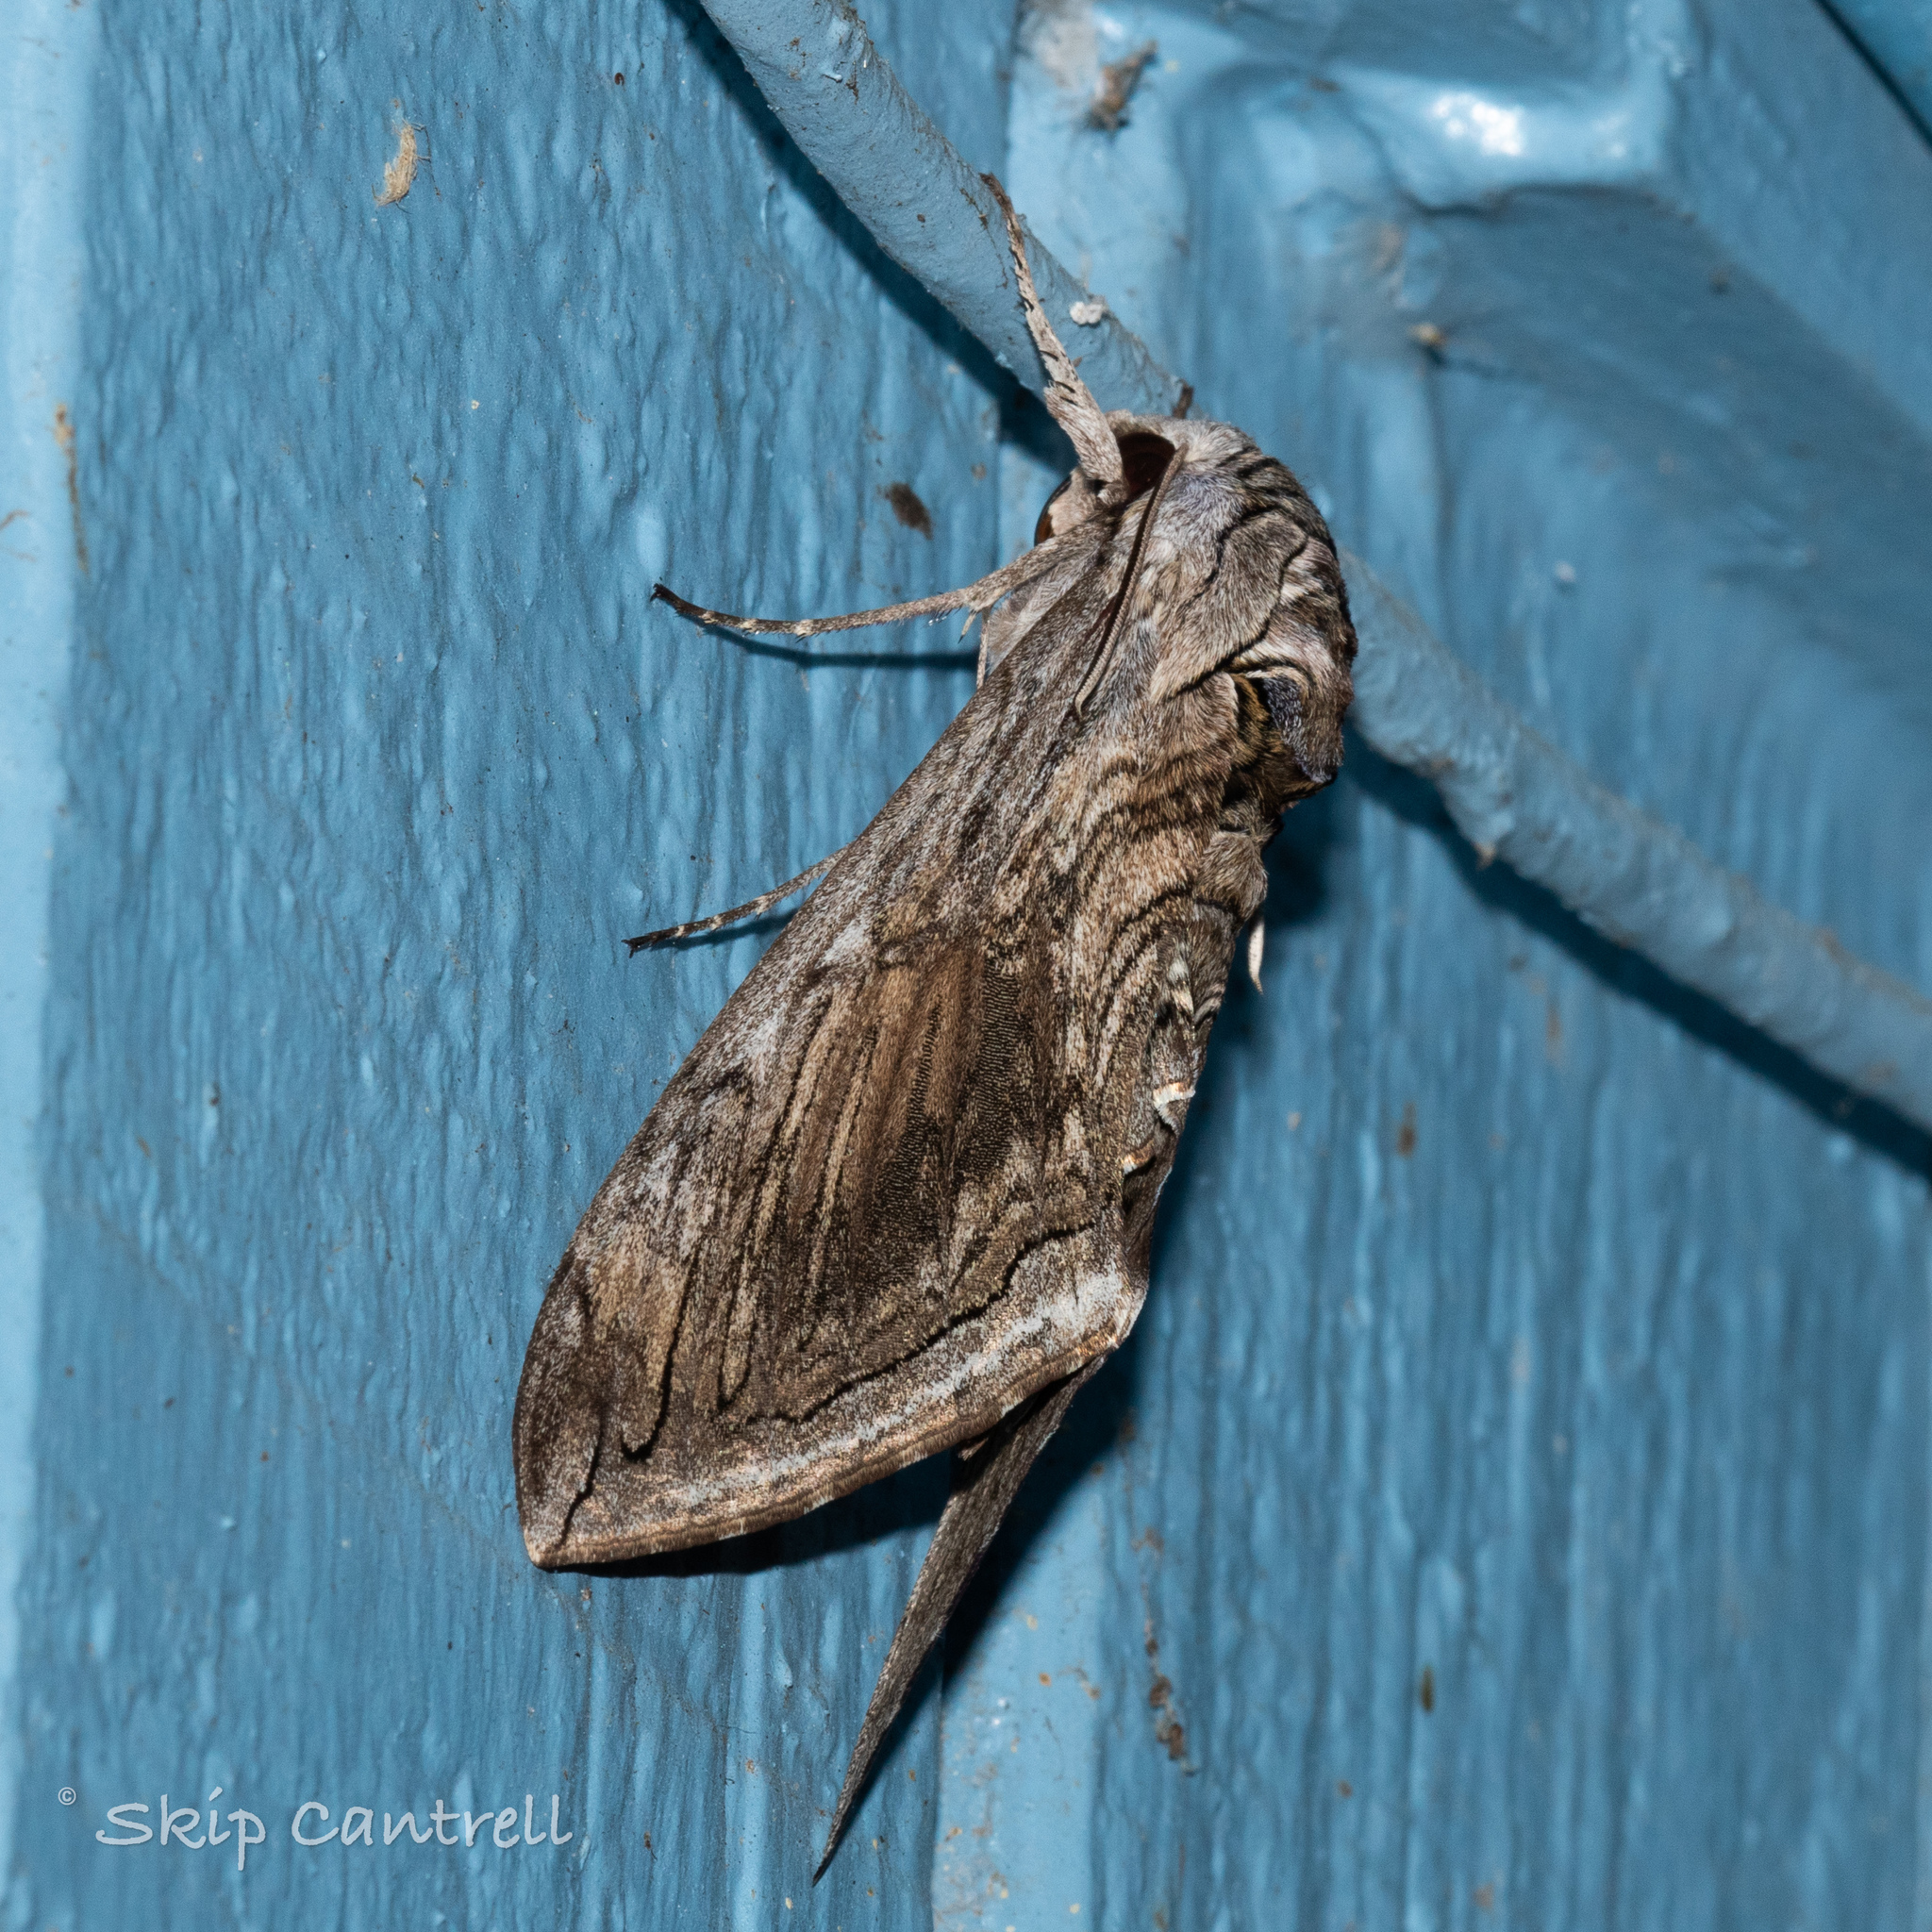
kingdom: Animalia
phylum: Arthropoda
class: Insecta
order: Lepidoptera
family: Sphingidae
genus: Manduca
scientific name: Manduca quinquemaculatus
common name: Five-spotted hawk-moth
